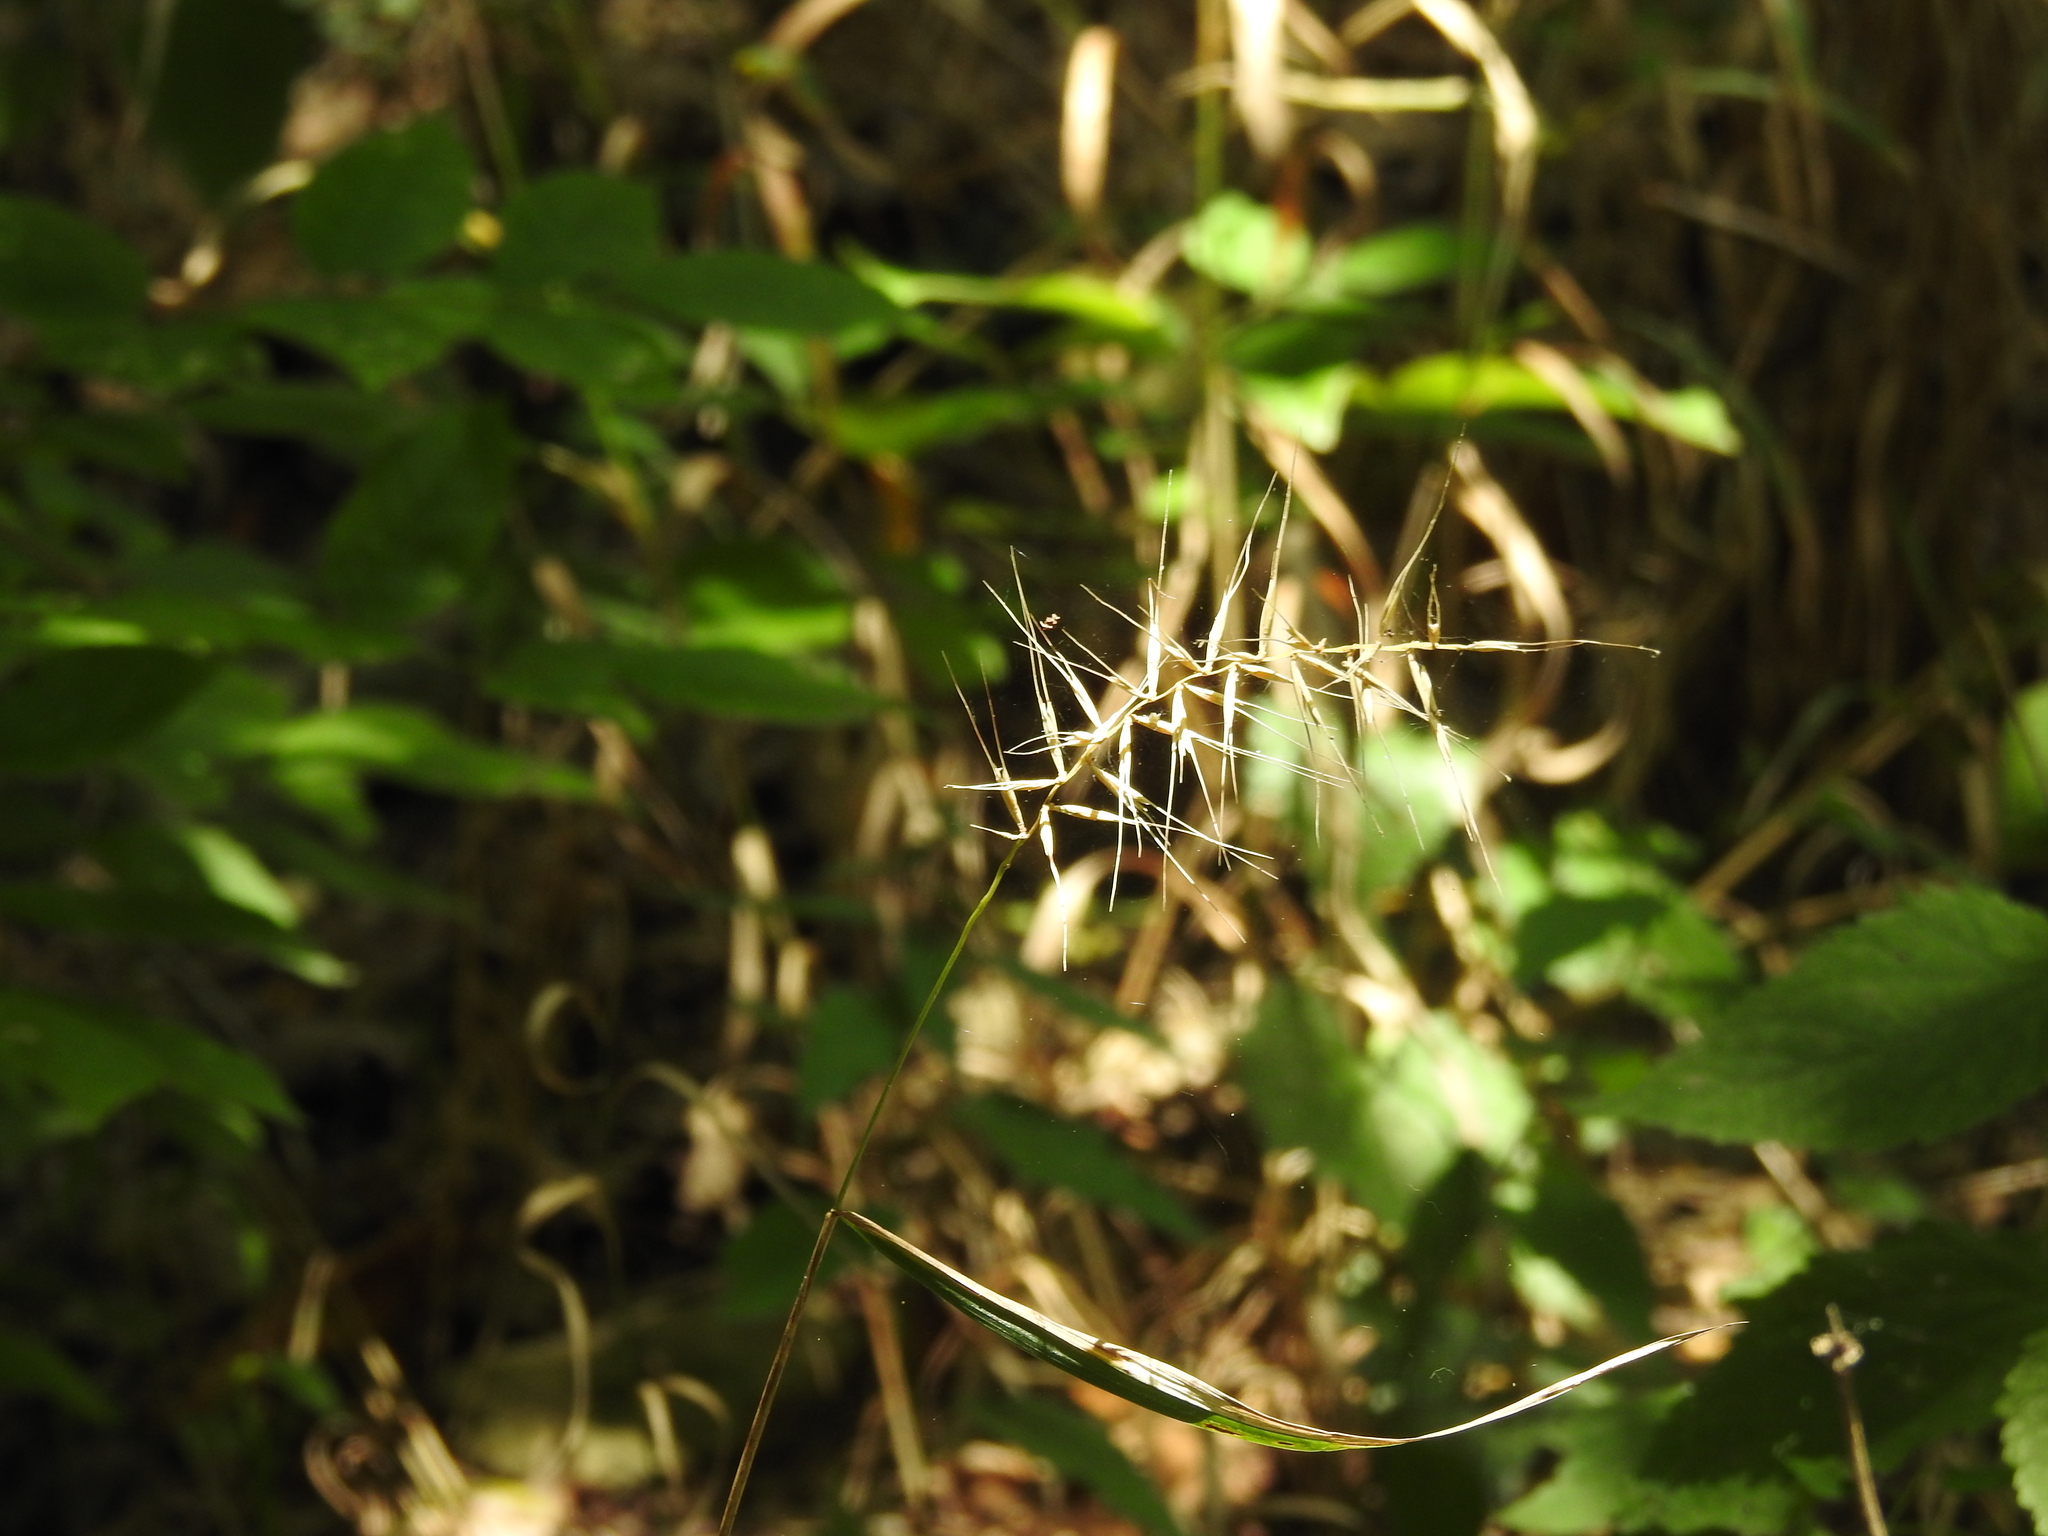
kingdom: Plantae
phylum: Tracheophyta
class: Liliopsida
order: Poales
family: Poaceae
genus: Elymus
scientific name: Elymus hystrix
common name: Bottlebrush grass
